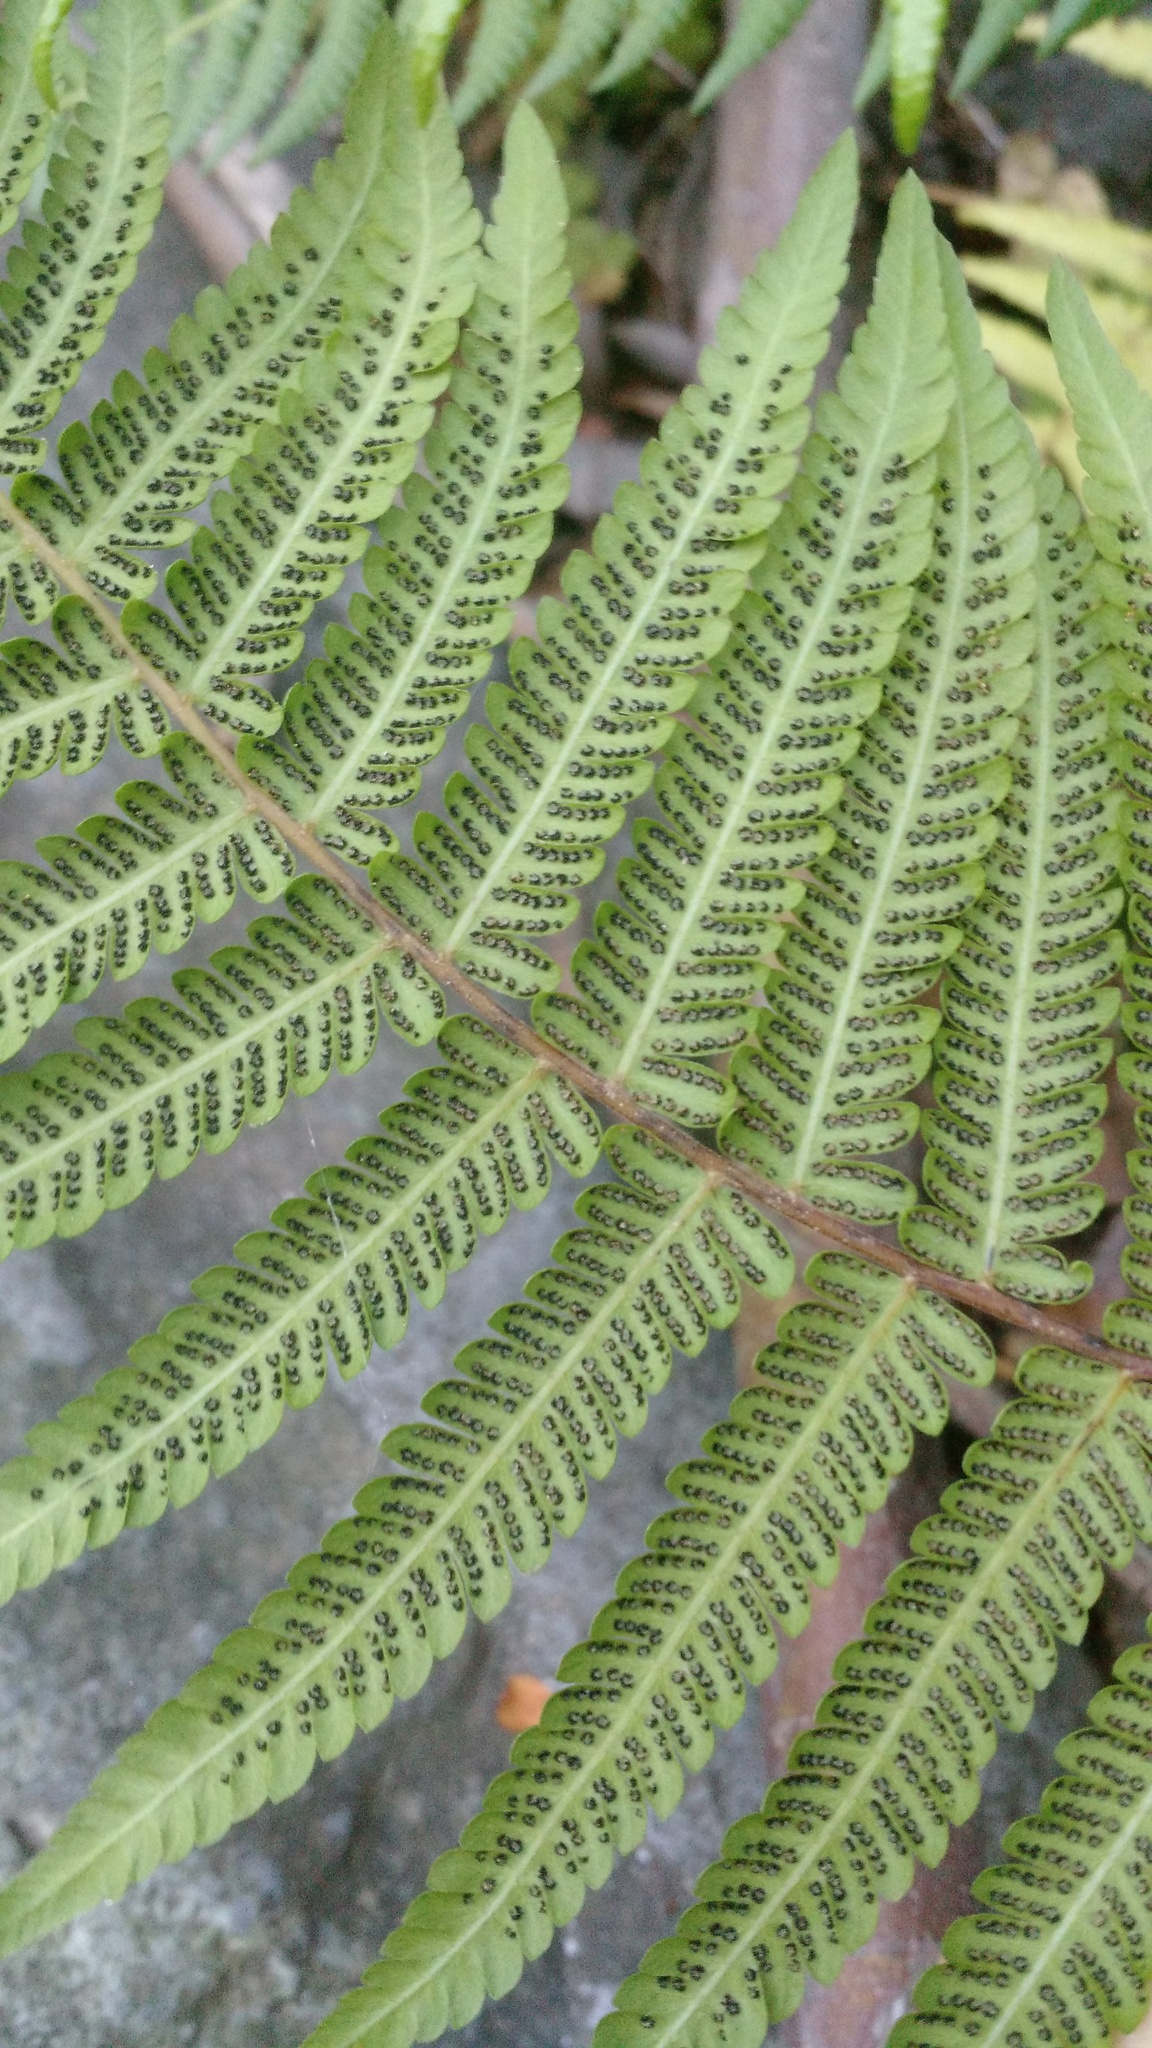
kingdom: Plantae
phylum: Tracheophyta
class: Polypodiopsida
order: Polypodiales
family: Thelypteridaceae
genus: Amauropelta
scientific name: Amauropelta argentina
